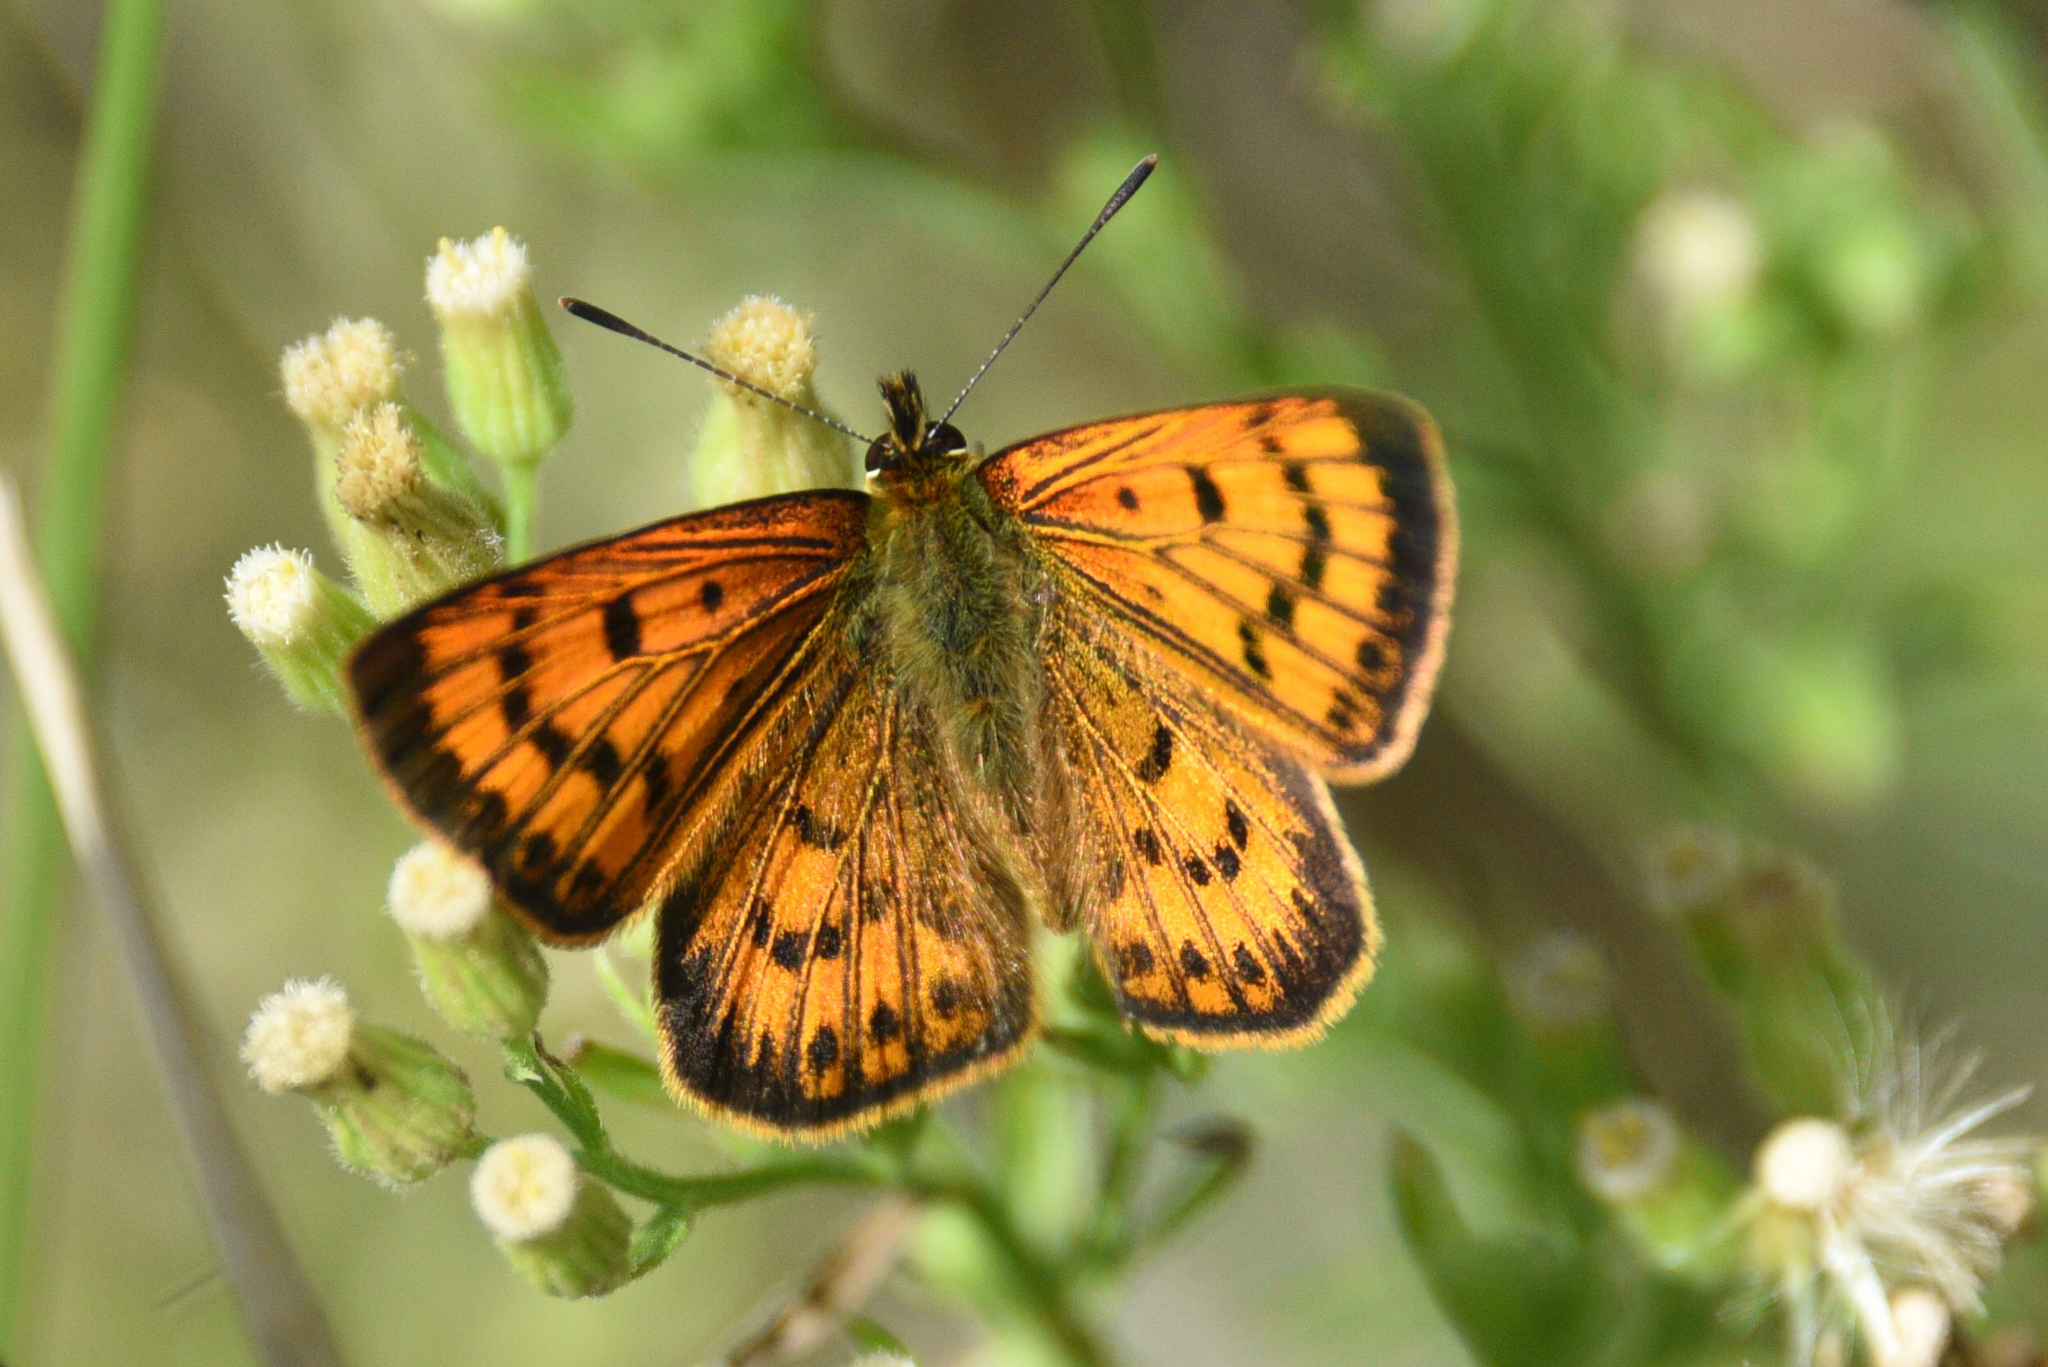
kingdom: Animalia
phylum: Arthropoda
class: Insecta
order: Lepidoptera
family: Lycaenidae
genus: Lycaena
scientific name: Lycaena salustius
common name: North island coastal copper
